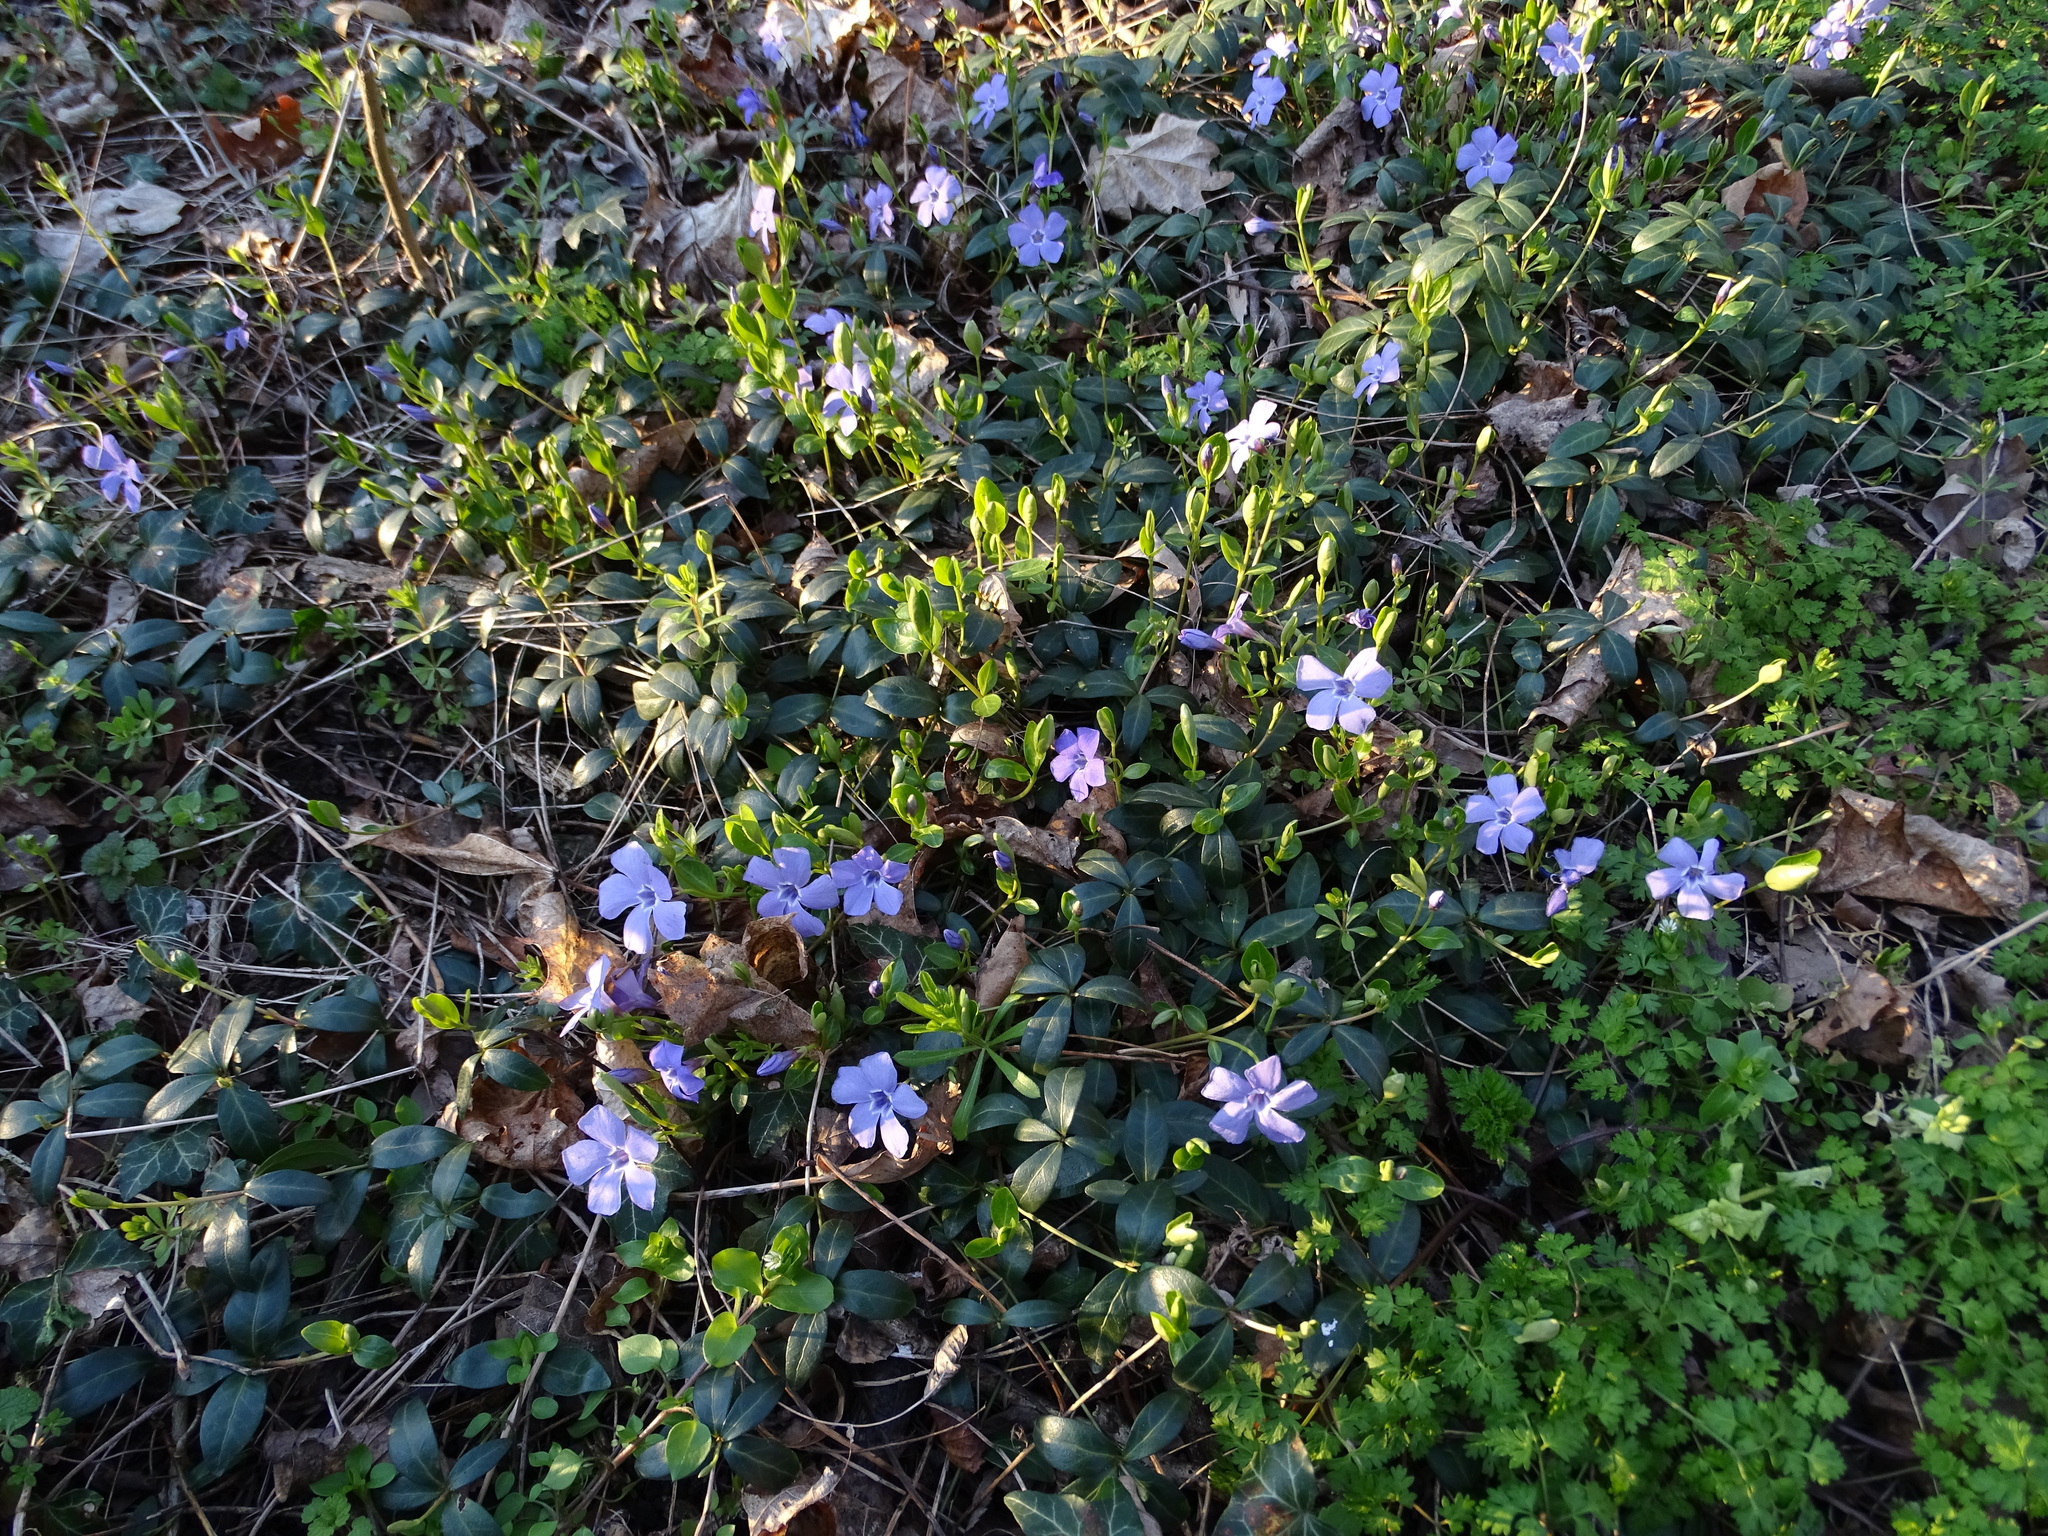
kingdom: Plantae
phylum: Tracheophyta
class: Magnoliopsida
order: Gentianales
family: Apocynaceae
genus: Vinca
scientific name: Vinca minor
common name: Lesser periwinkle
